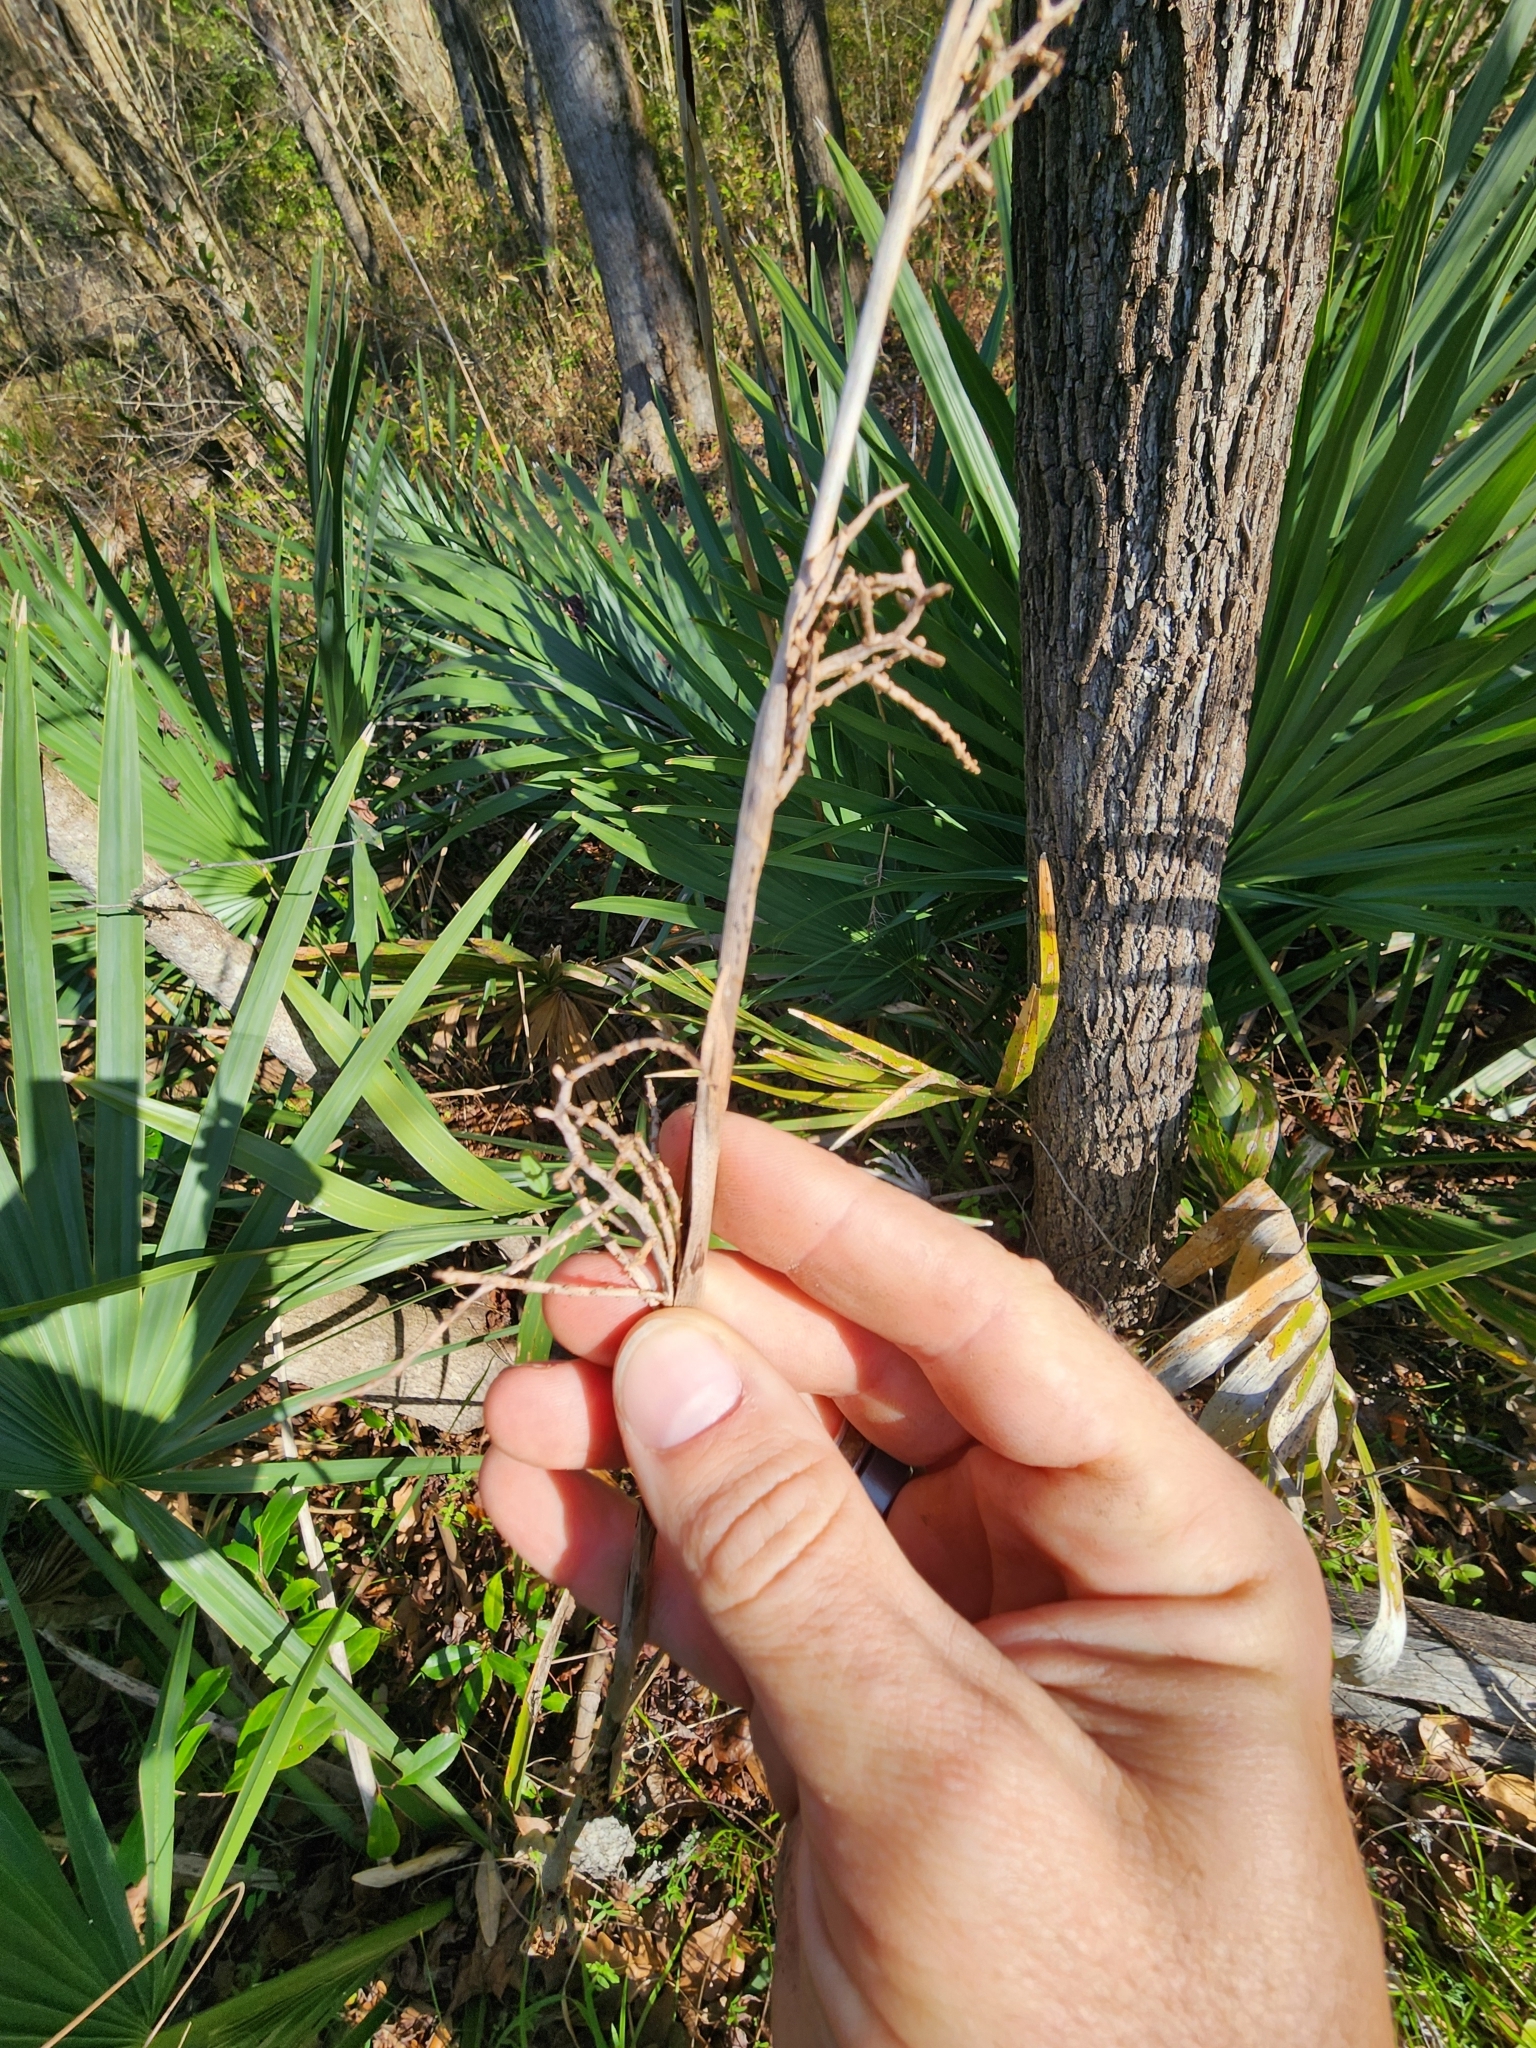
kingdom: Plantae
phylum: Tracheophyta
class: Liliopsida
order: Arecales
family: Arecaceae
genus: Sabal
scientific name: Sabal minor
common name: Dwarf palmetto
